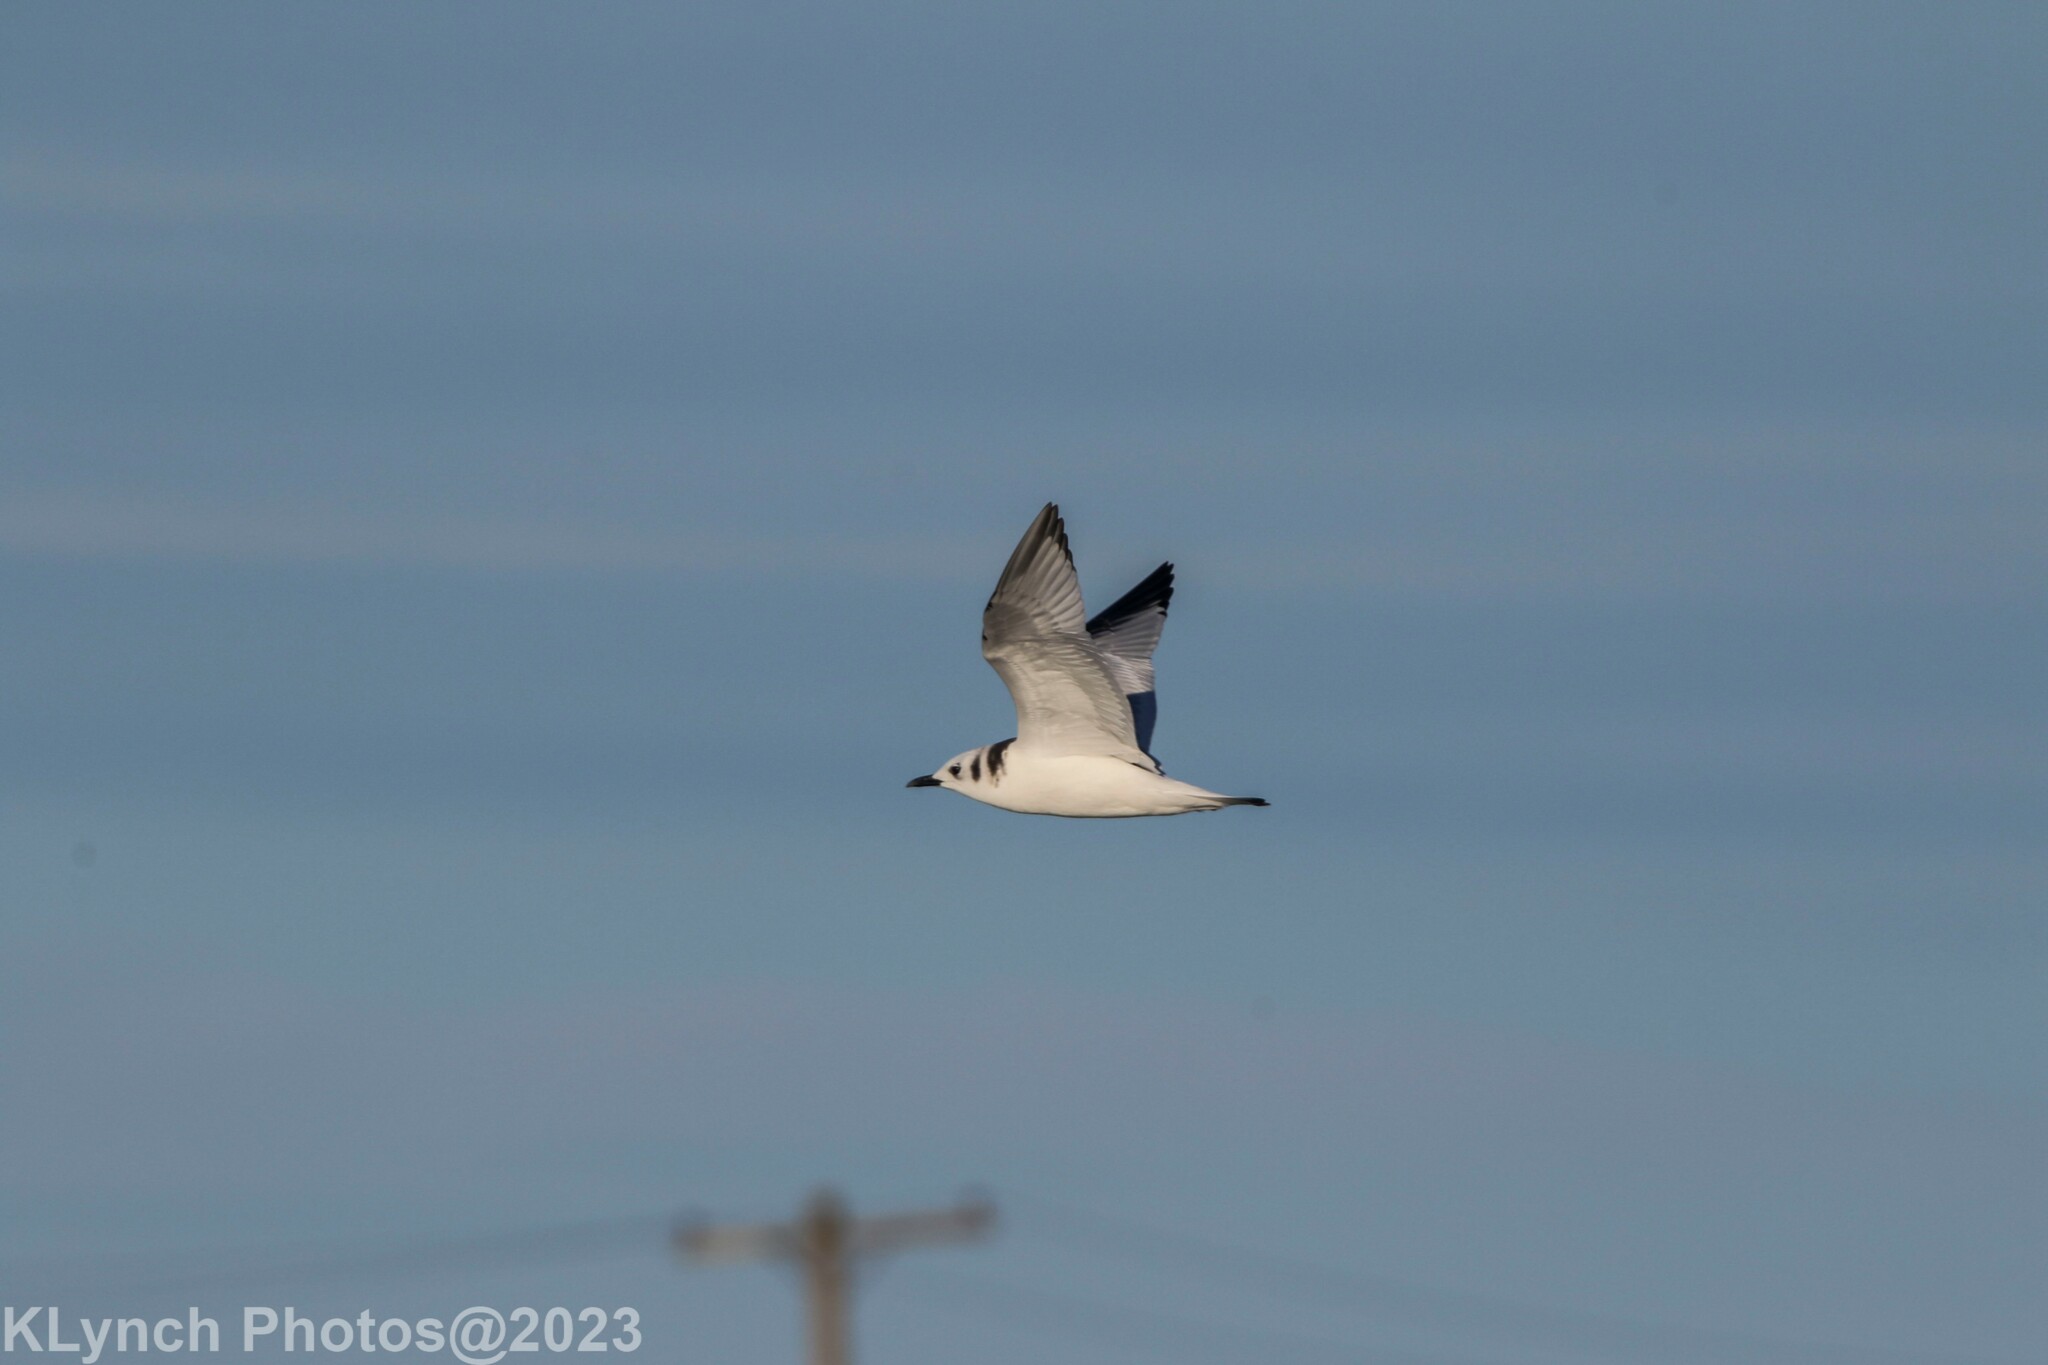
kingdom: Animalia
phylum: Chordata
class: Aves
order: Charadriiformes
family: Laridae
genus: Rissa
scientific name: Rissa tridactyla
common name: Black-legged kittiwake
